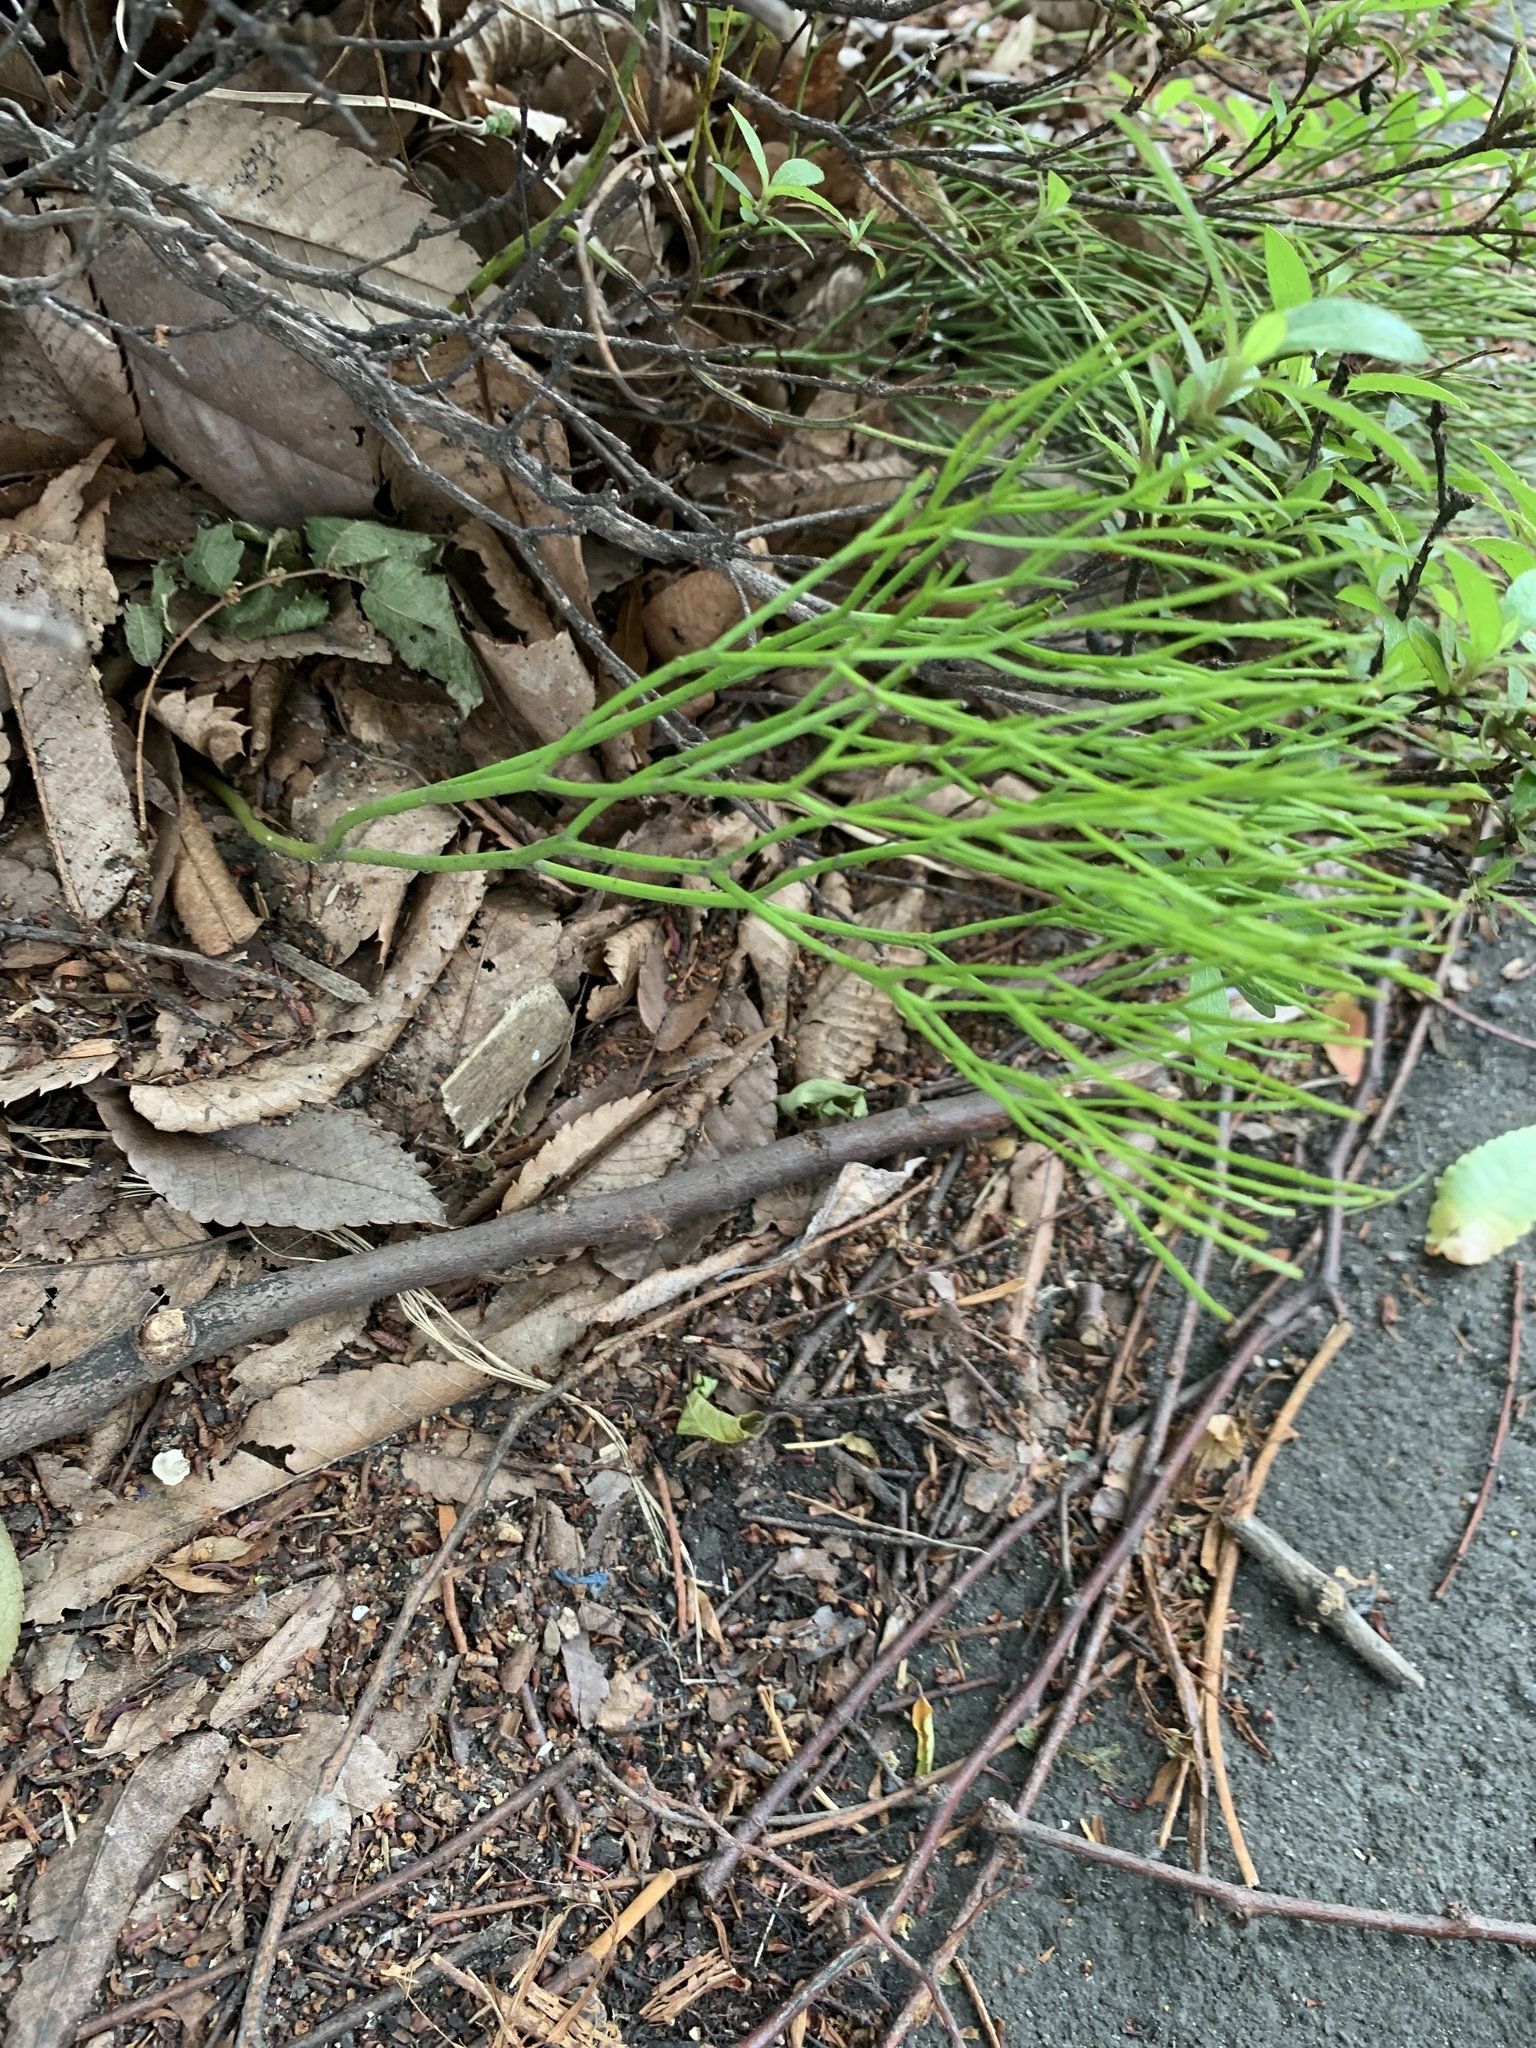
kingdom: Plantae
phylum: Tracheophyta
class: Polypodiopsida
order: Psilotales
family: Psilotaceae
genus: Psilotum
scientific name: Psilotum nudum
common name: Skeleton fork fern
